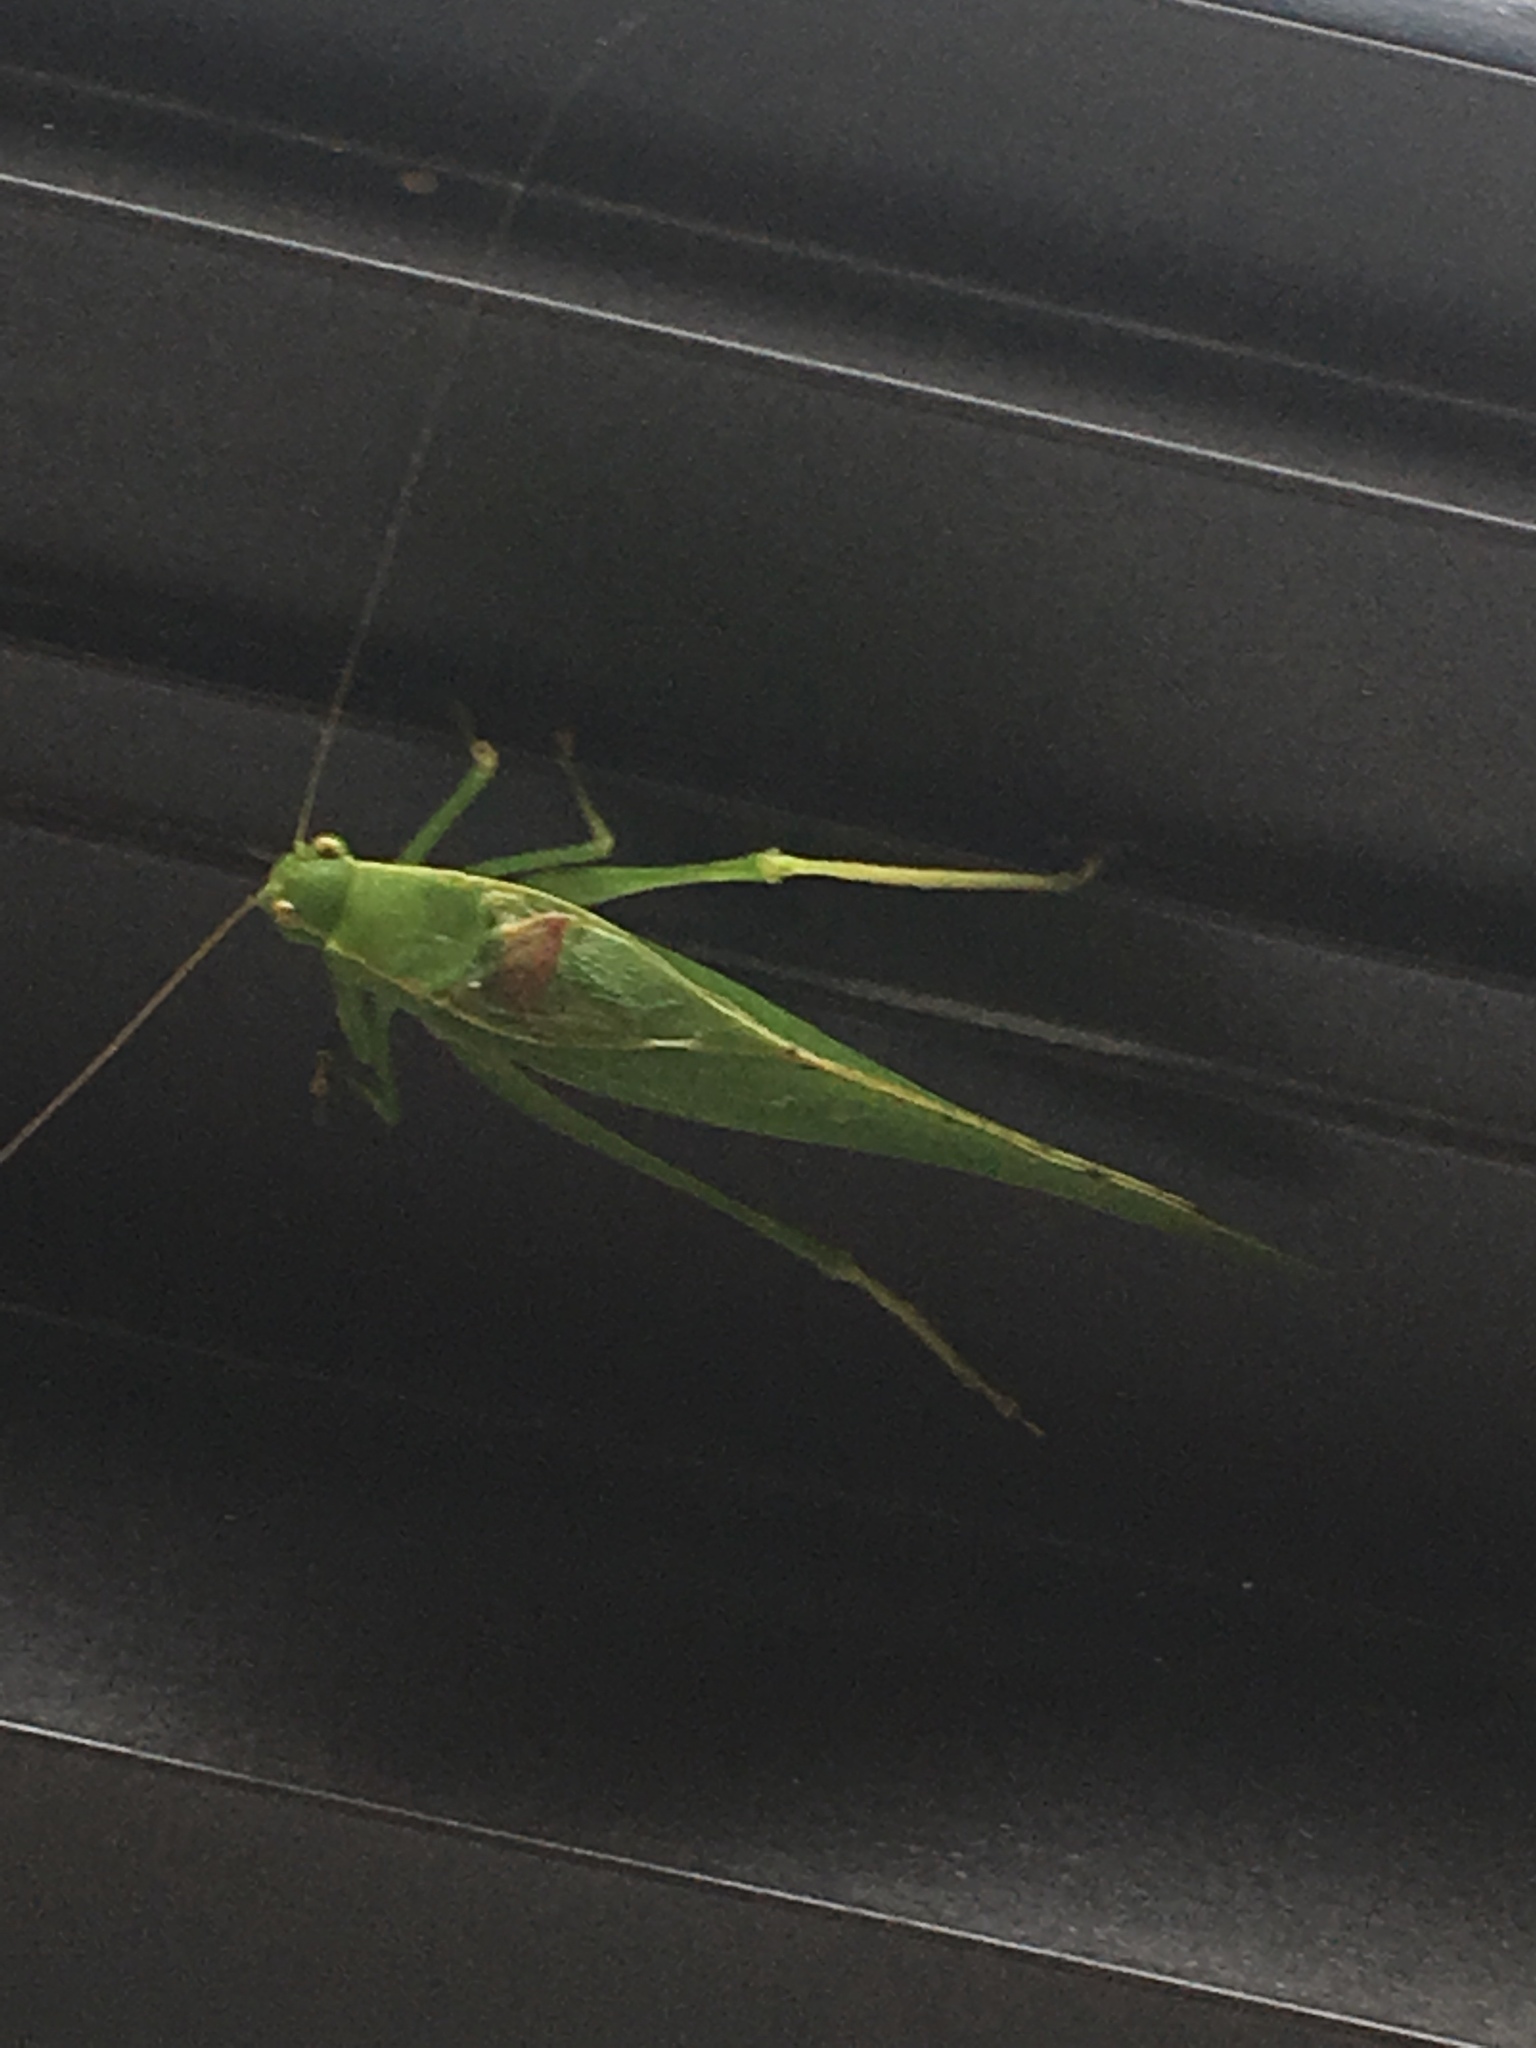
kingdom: Animalia
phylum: Arthropoda
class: Insecta
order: Orthoptera
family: Tettigoniidae
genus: Microcentrum
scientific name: Microcentrum retinerve
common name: Angular-winged katydid
